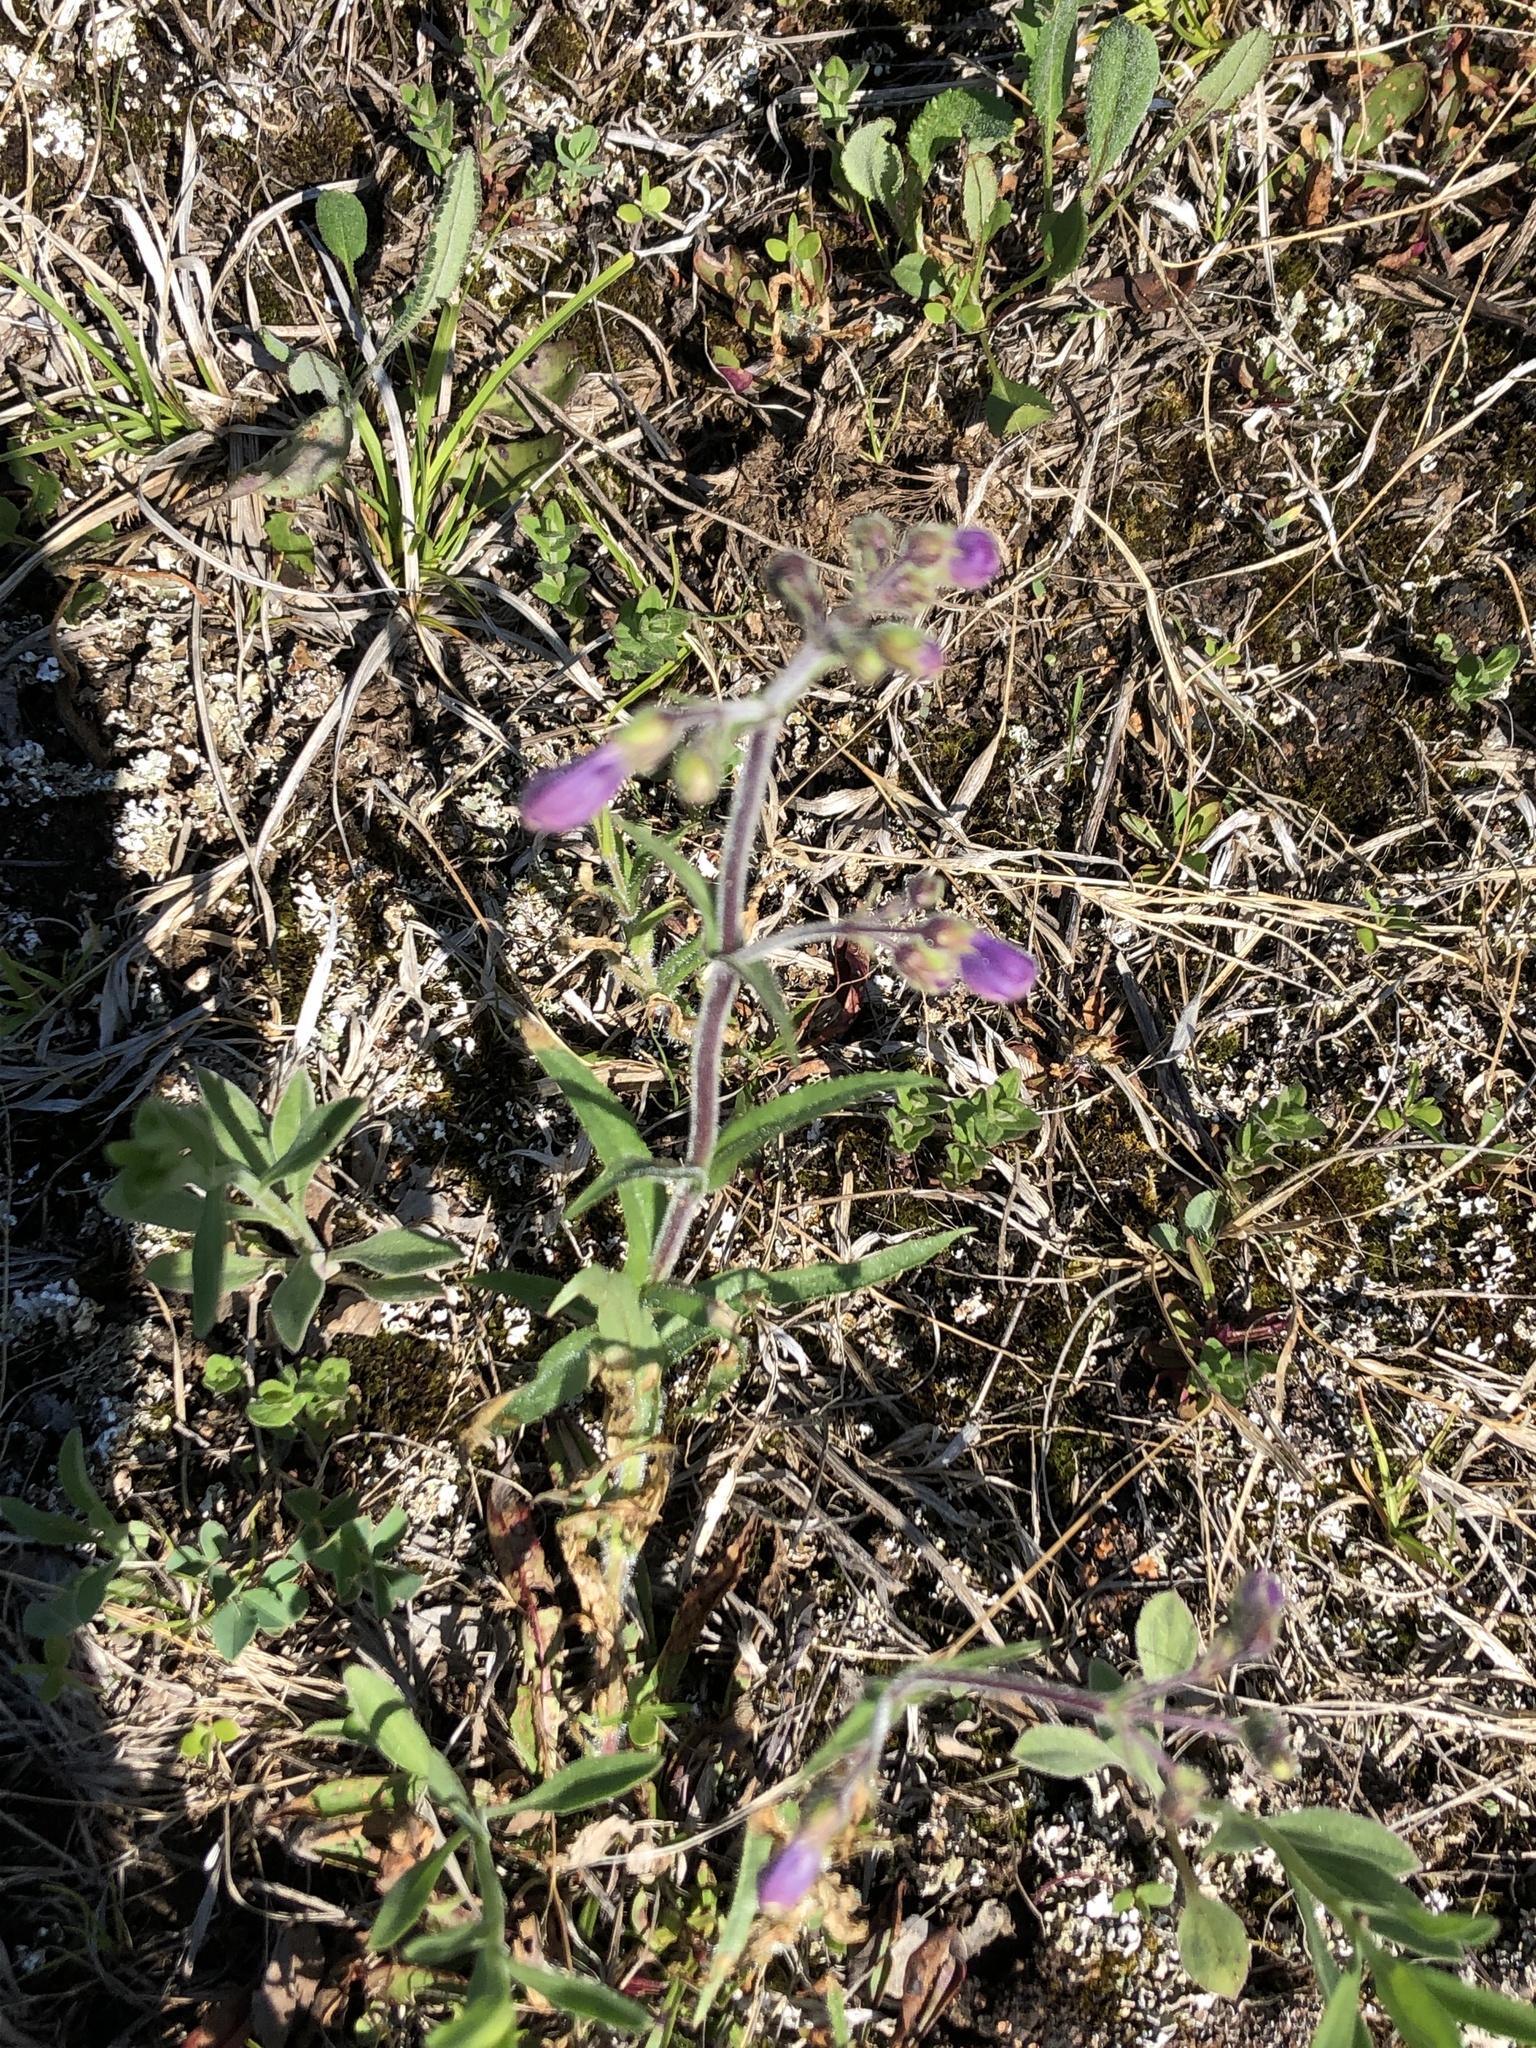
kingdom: Plantae
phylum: Tracheophyta
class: Magnoliopsida
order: Lamiales
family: Plantaginaceae
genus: Penstemon
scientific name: Penstemon hirsutus
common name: Hairy beardtongue
